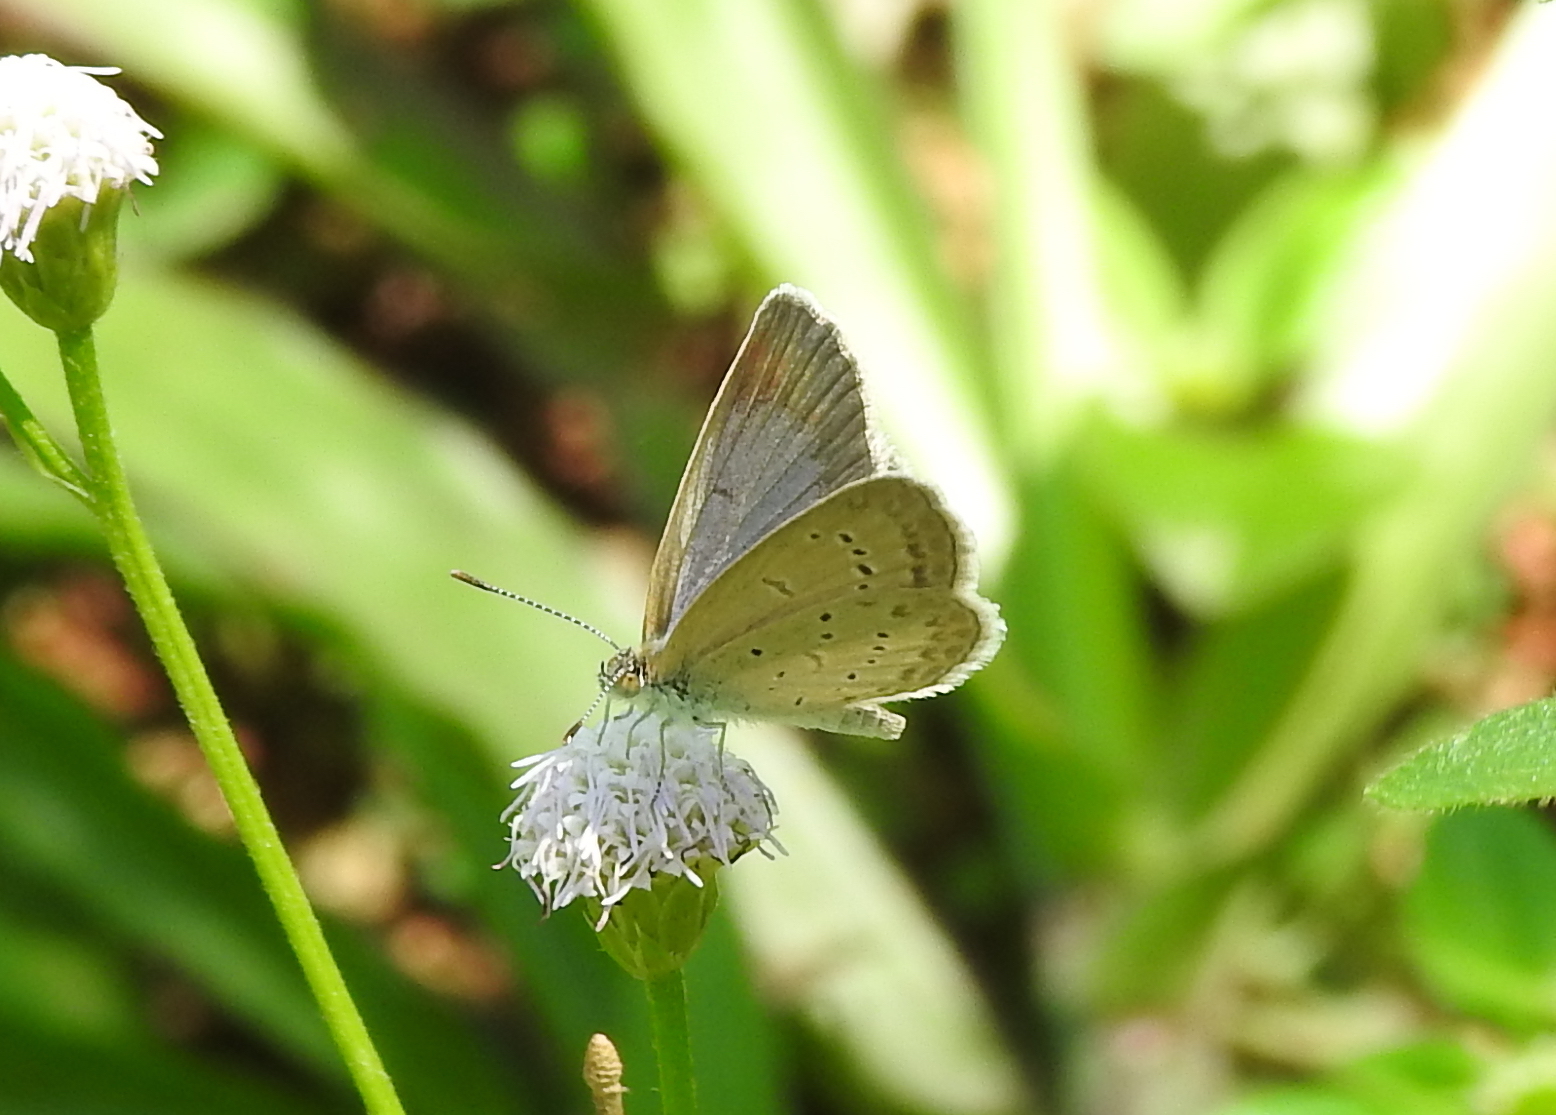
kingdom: Animalia
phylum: Arthropoda
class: Insecta
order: Lepidoptera
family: Lycaenidae
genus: Zizina
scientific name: Zizina otis
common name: Lesser grass blue
